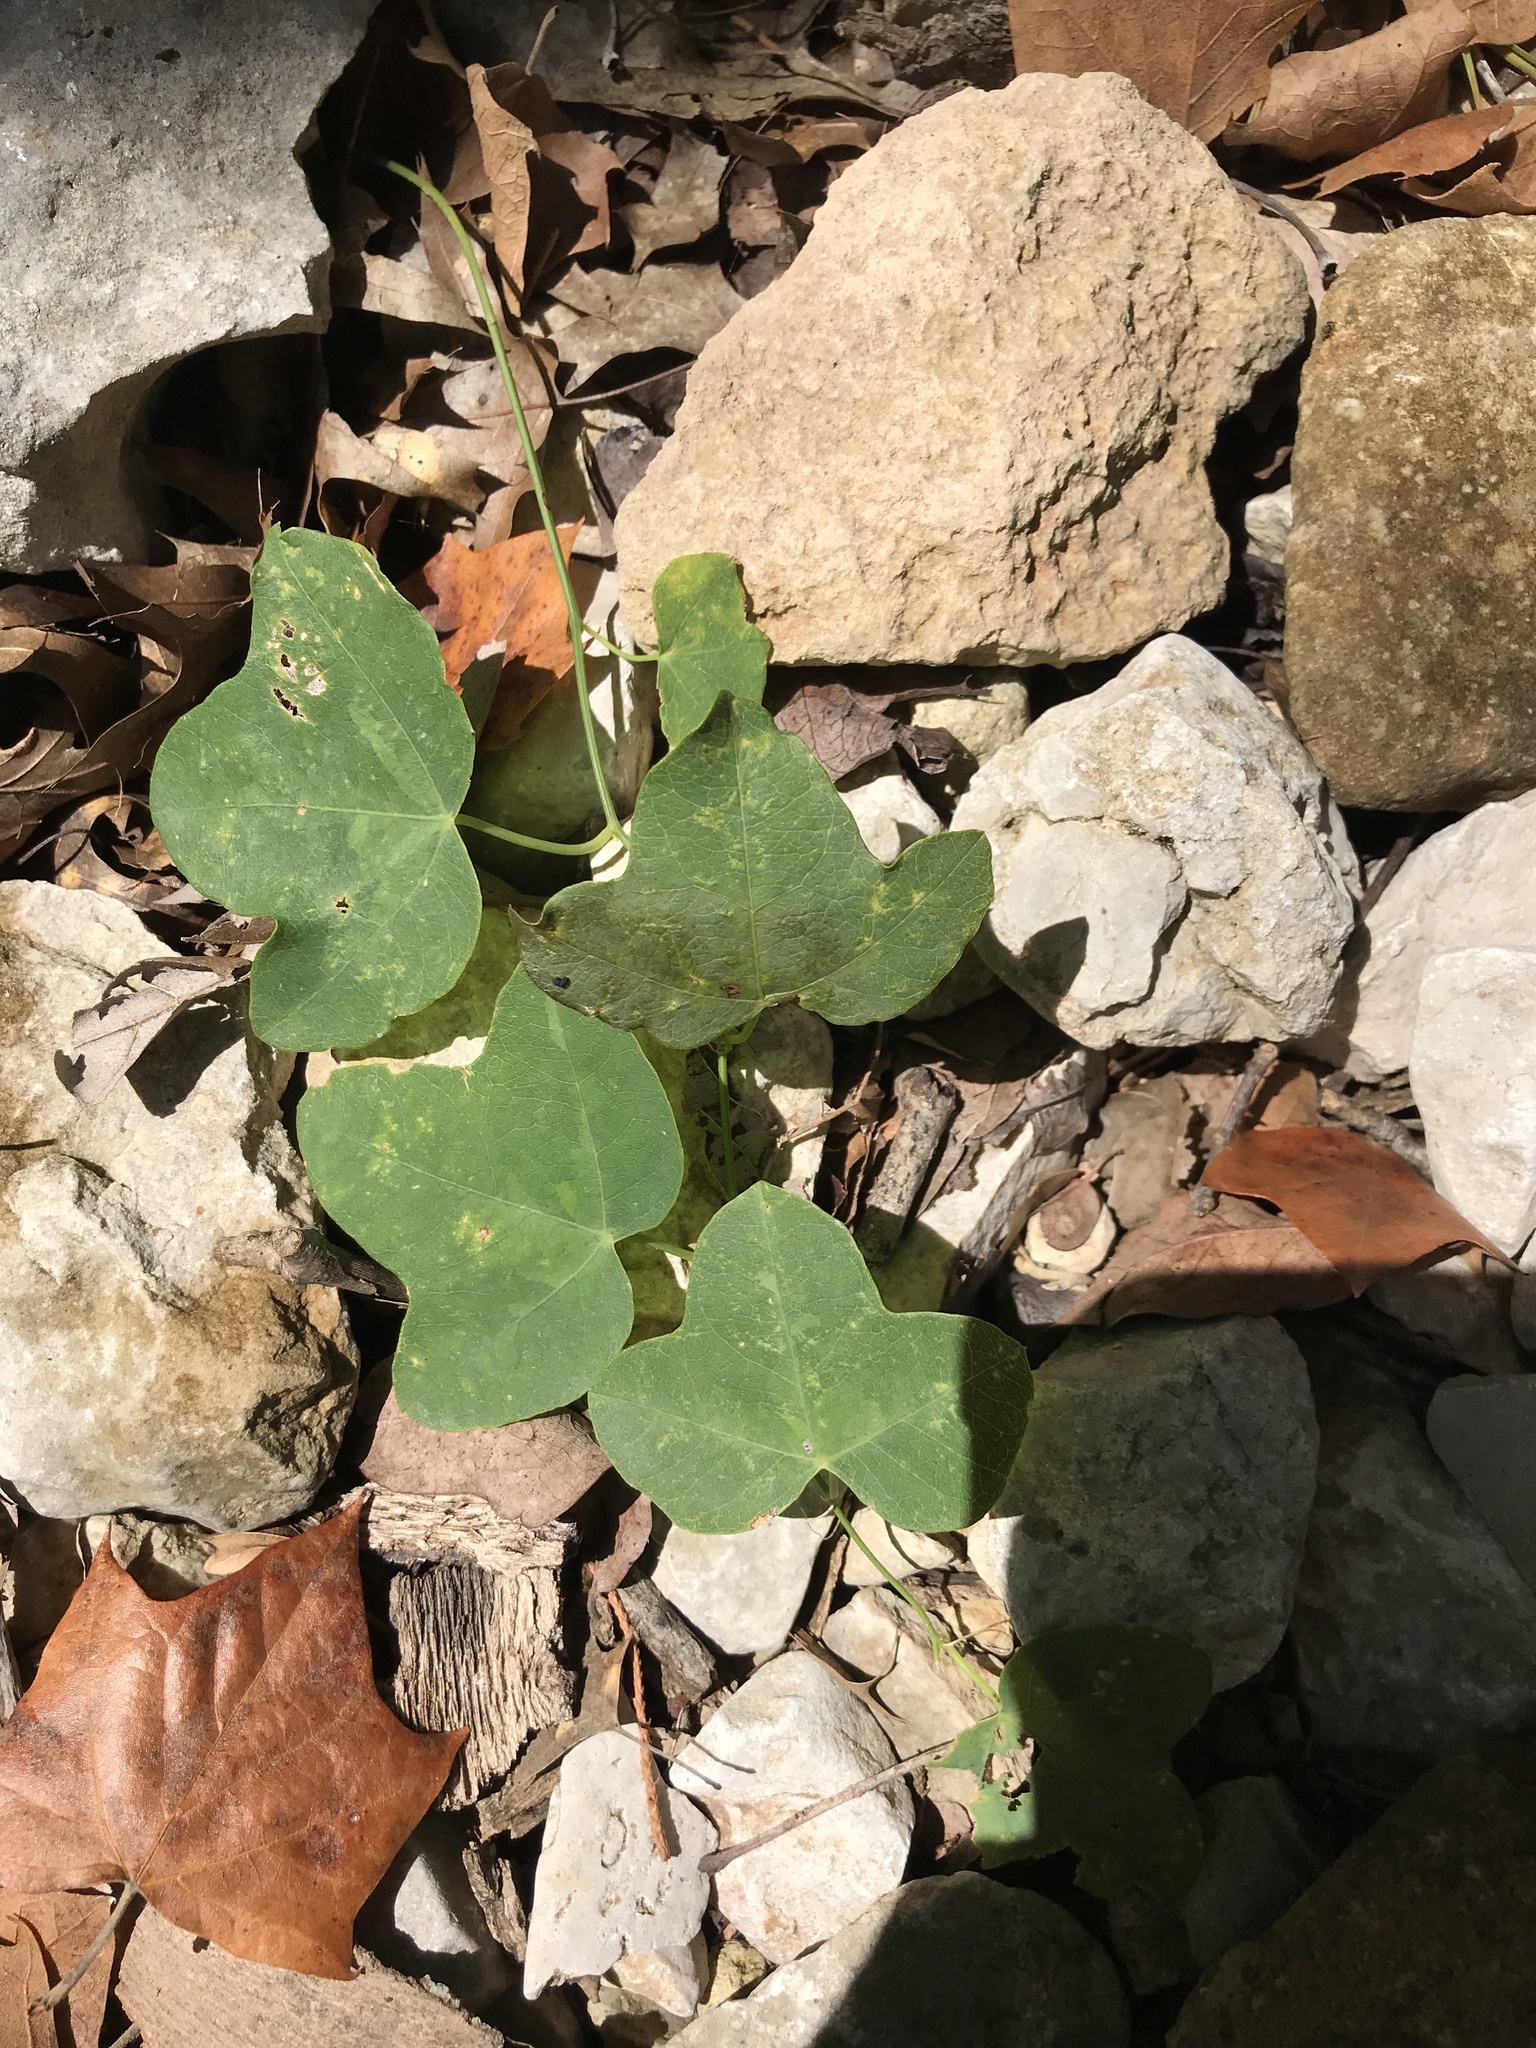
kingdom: Plantae
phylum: Tracheophyta
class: Magnoliopsida
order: Malpighiales
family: Passifloraceae
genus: Passiflora
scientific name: Passiflora lutea
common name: Yellow passionflower
